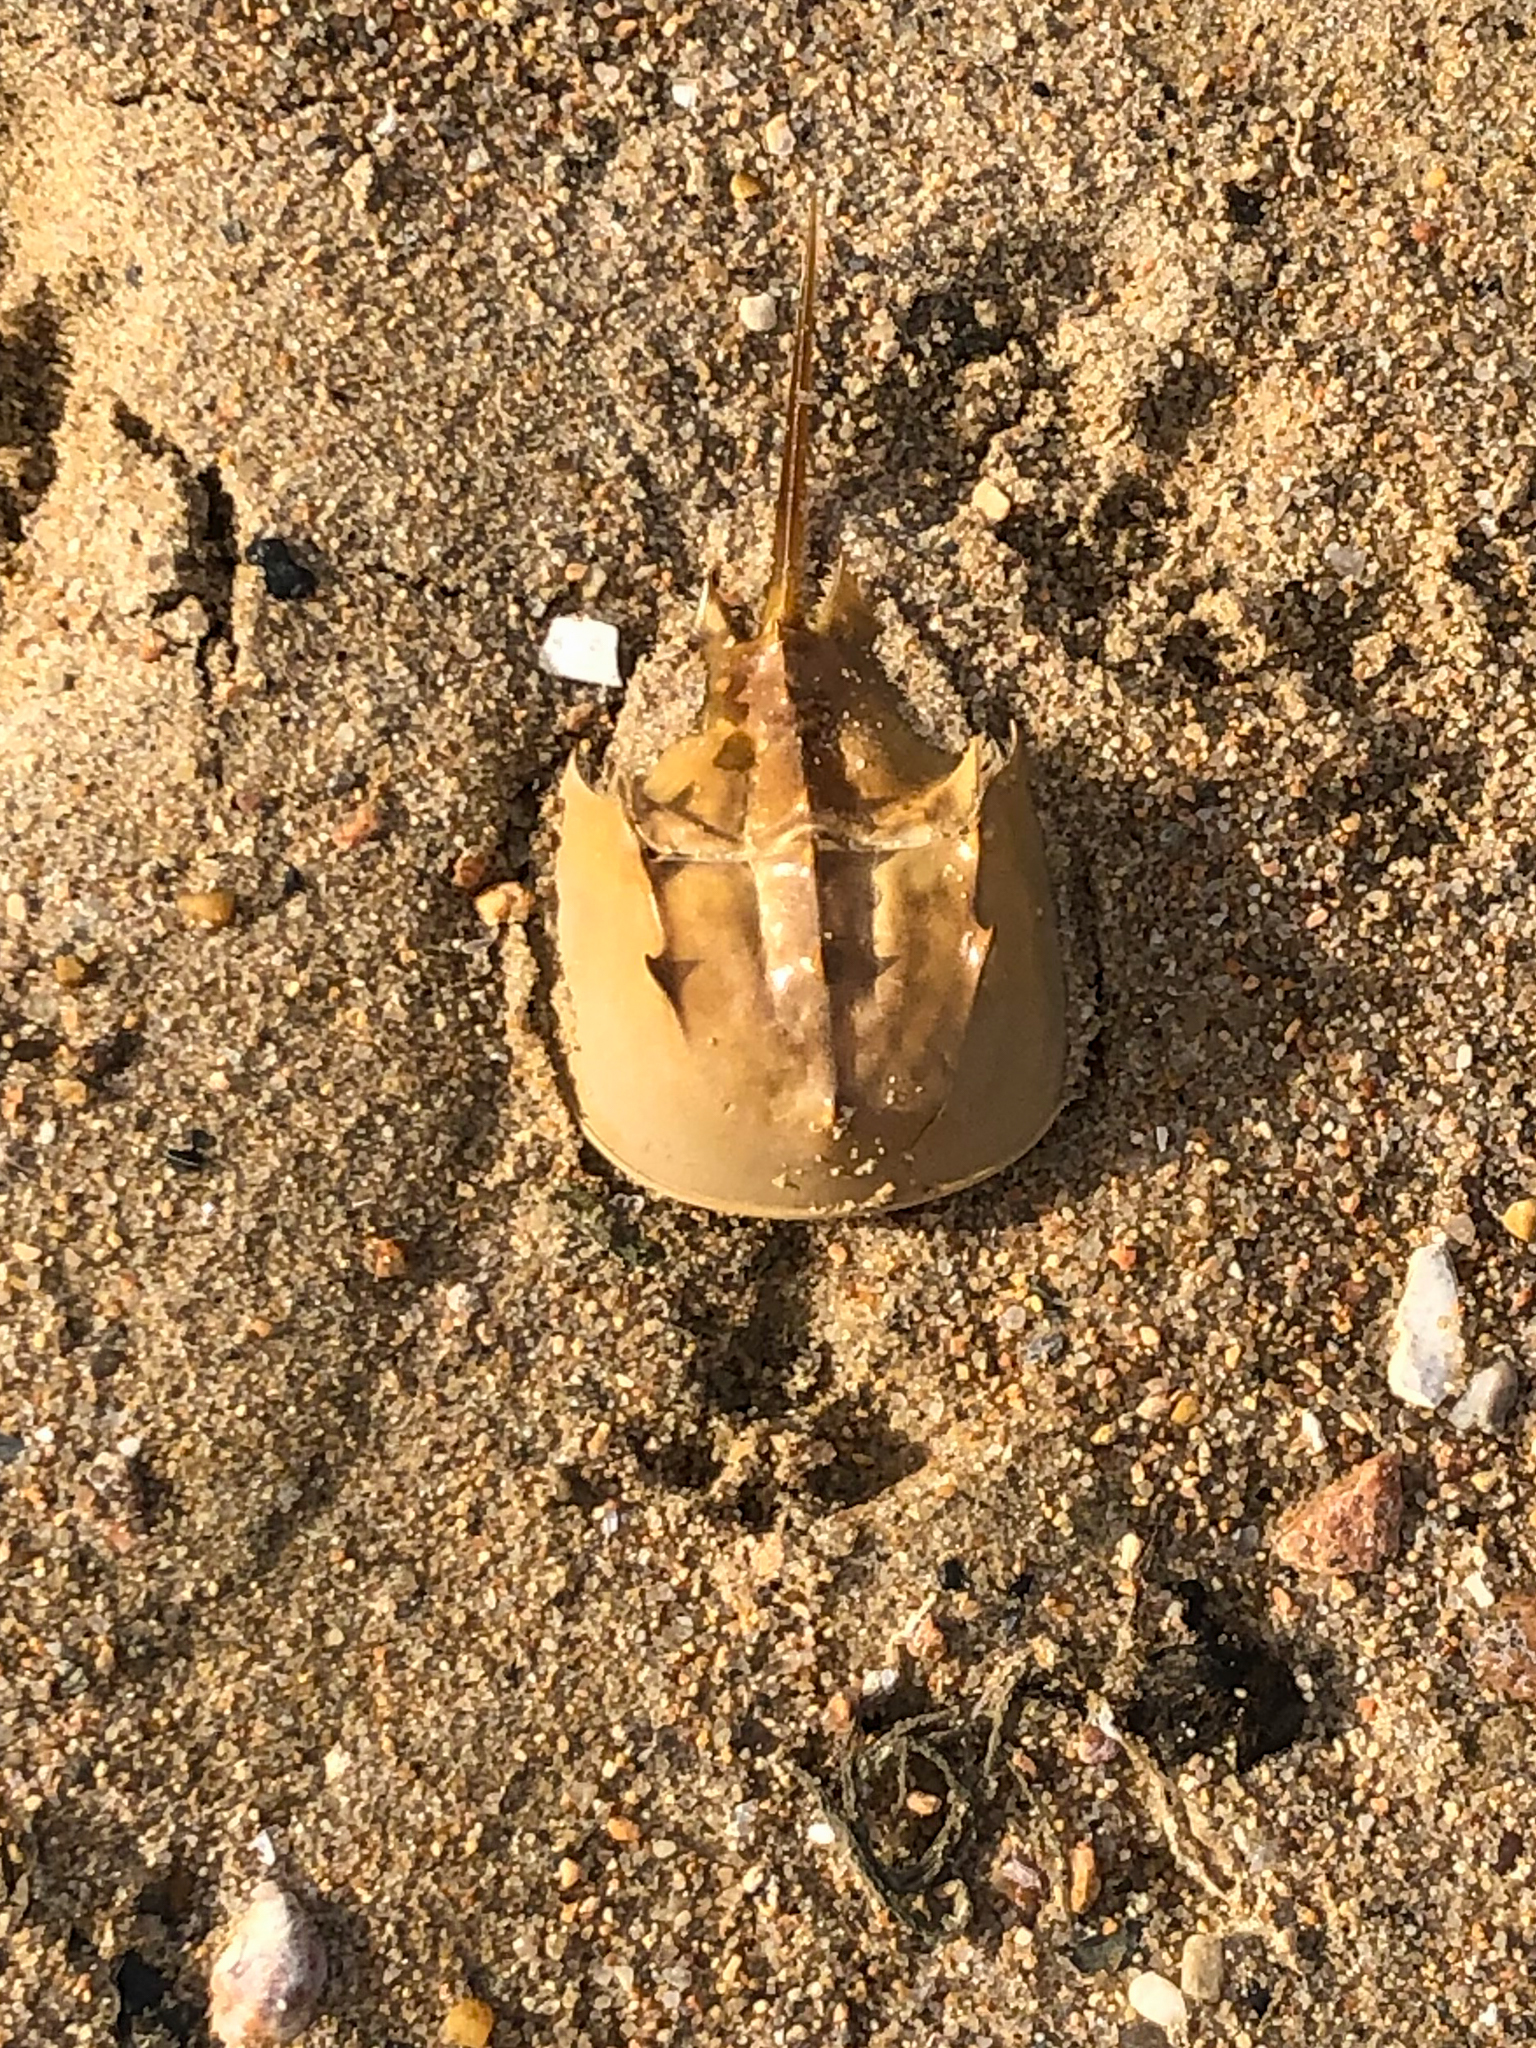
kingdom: Animalia
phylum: Arthropoda
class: Merostomata
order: Xiphosurida
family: Limulidae
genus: Limulus
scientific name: Limulus polyphemus
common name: Horseshoe crab
